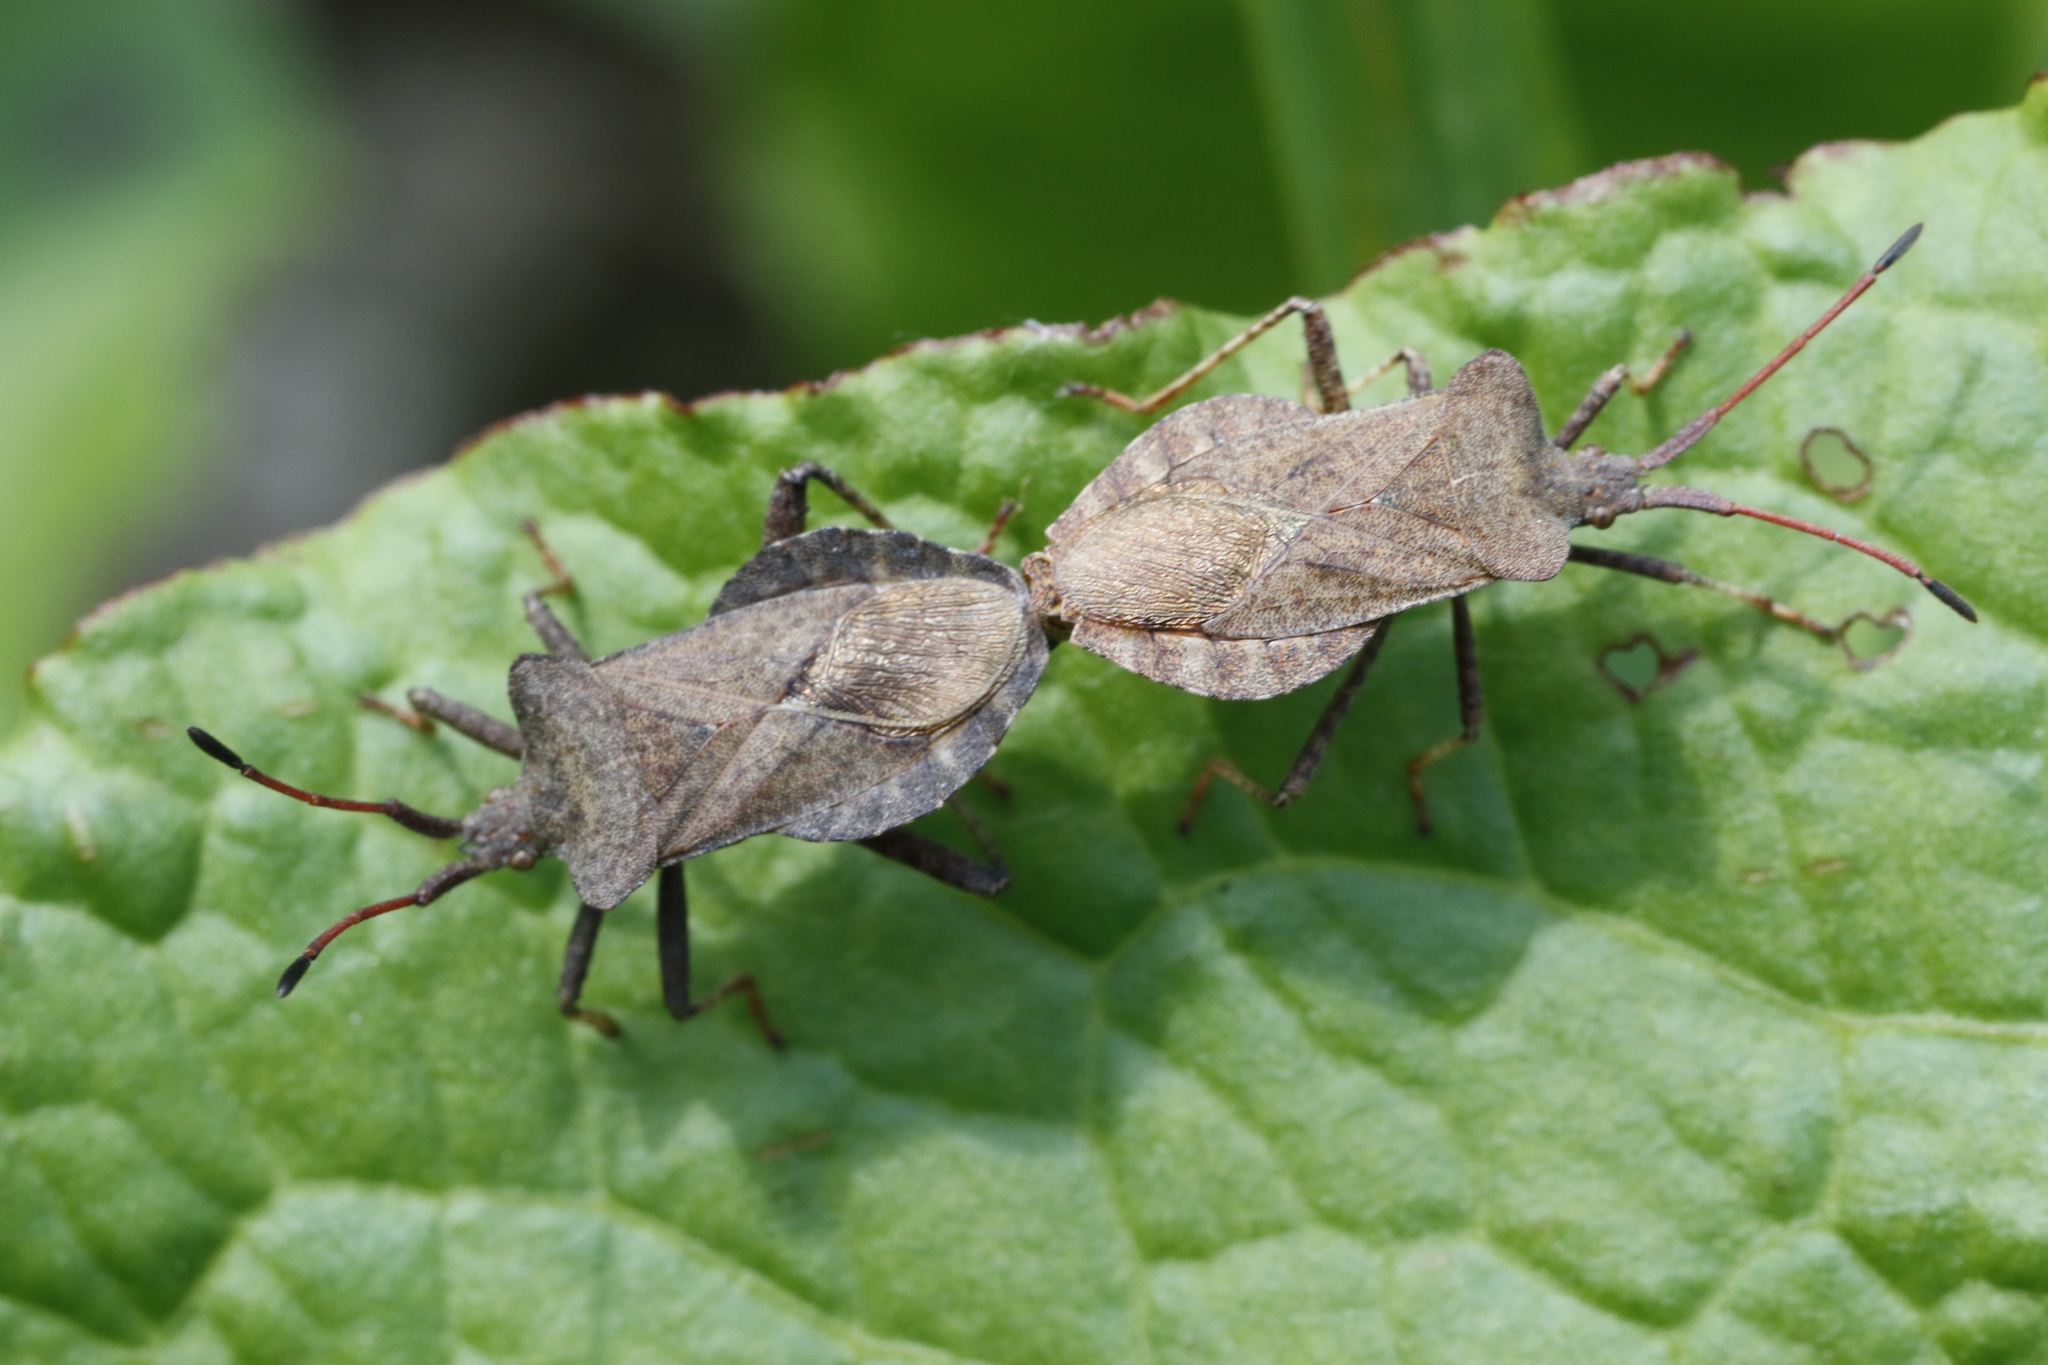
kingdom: Animalia
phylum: Arthropoda
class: Insecta
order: Hemiptera
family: Coreidae
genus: Coreus
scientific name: Coreus marginatus
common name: Dock bug
